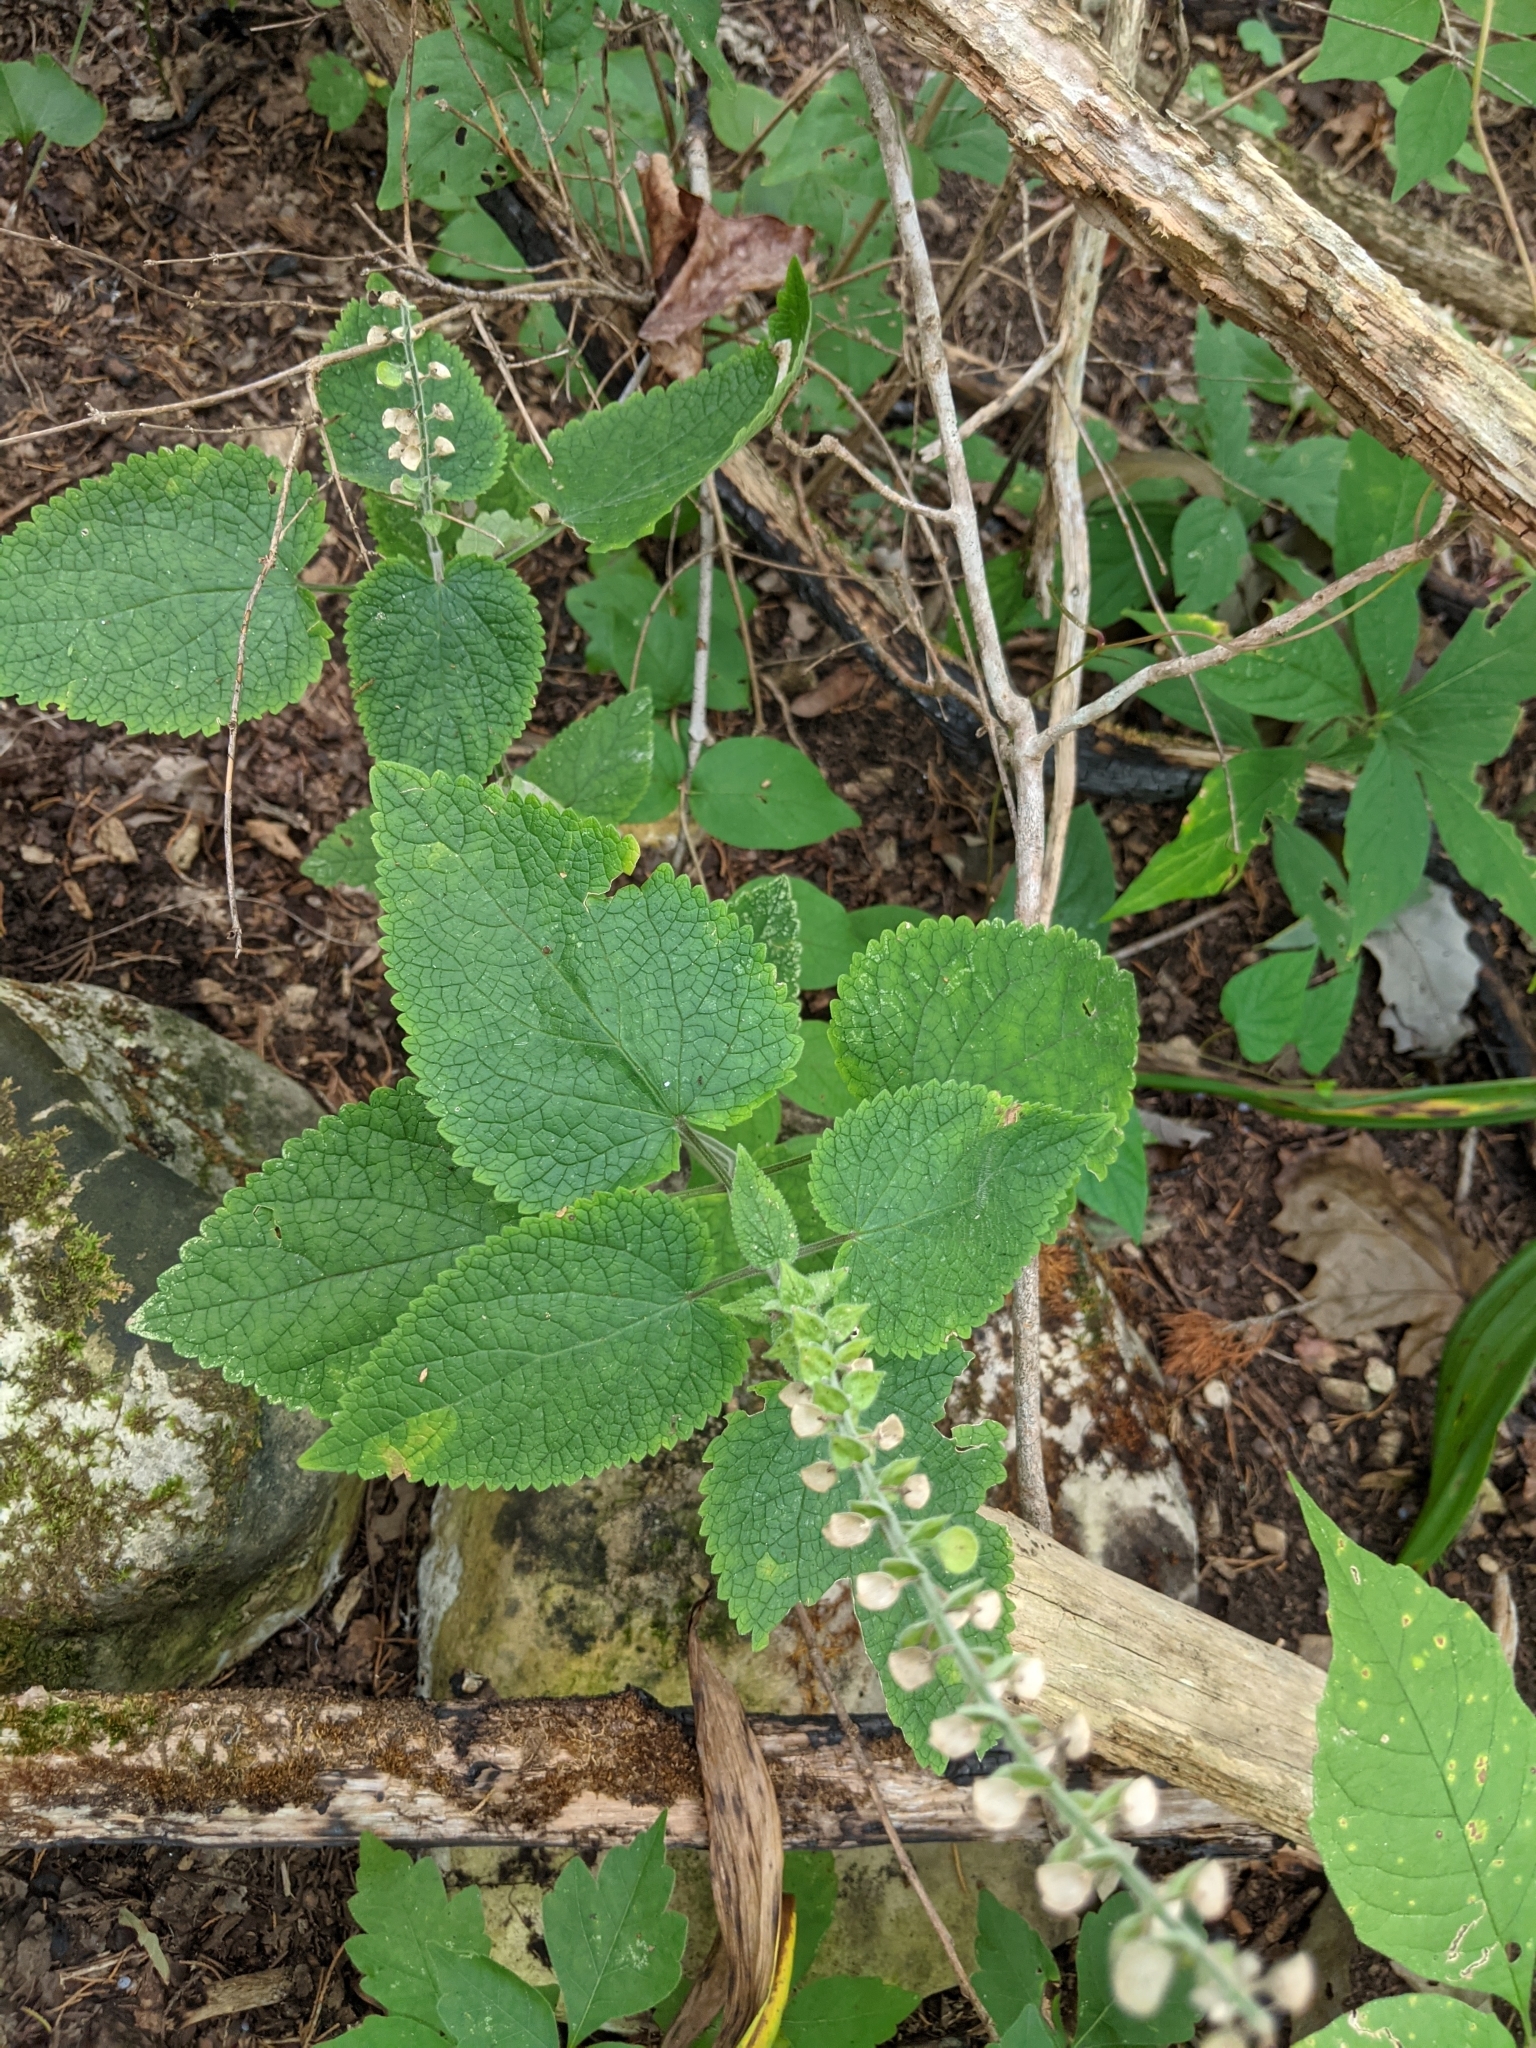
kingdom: Plantae
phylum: Tracheophyta
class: Magnoliopsida
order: Lamiales
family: Lamiaceae
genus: Scutellaria
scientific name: Scutellaria ovata
